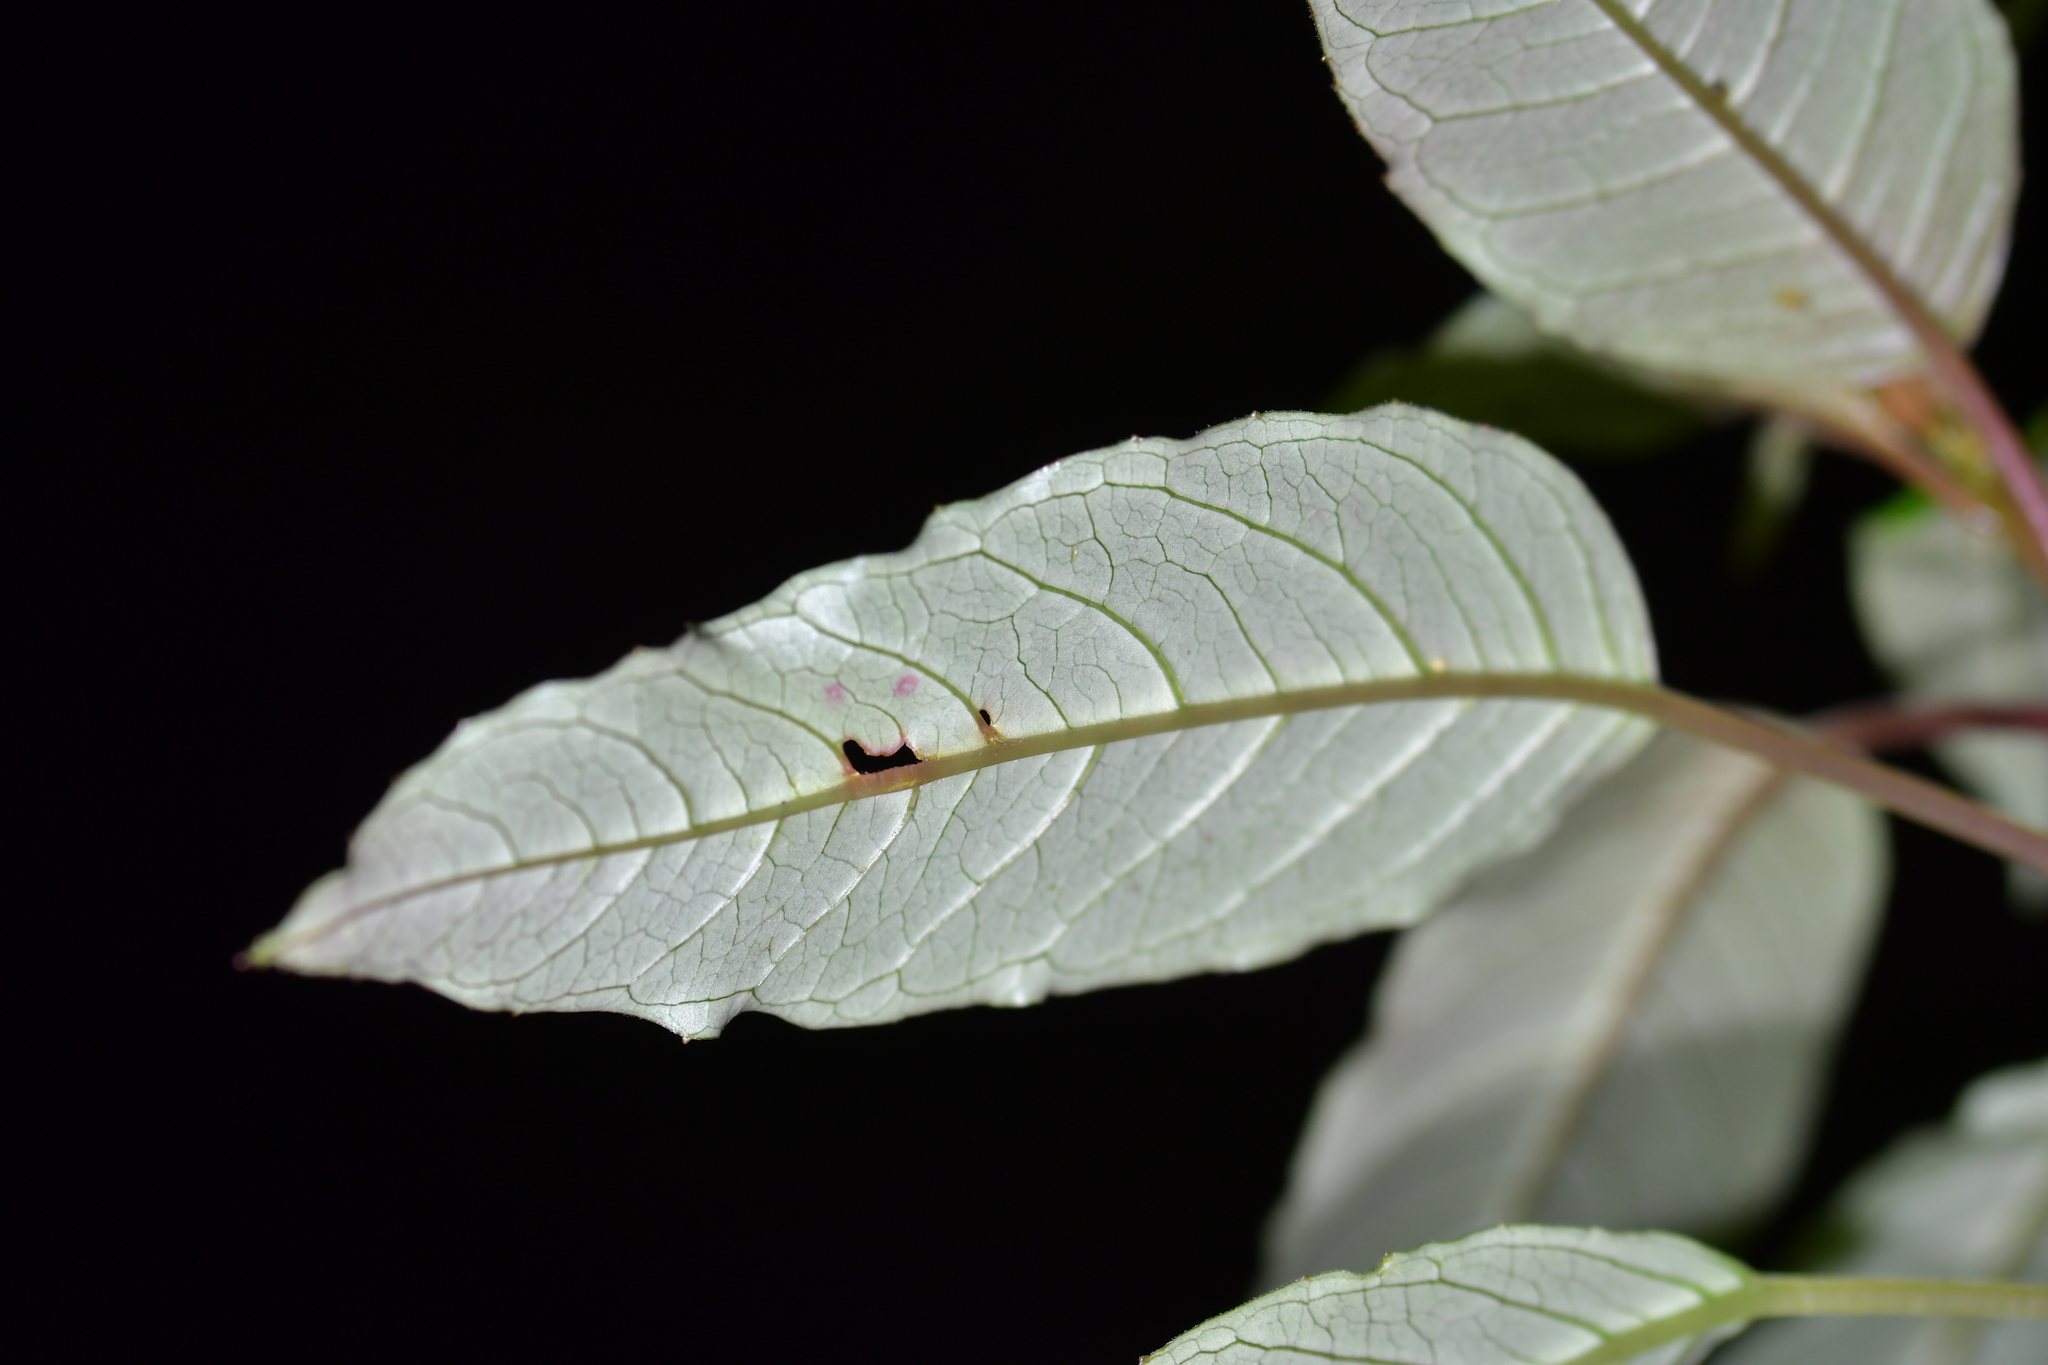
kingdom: Plantae
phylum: Tracheophyta
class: Magnoliopsida
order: Myrtales
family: Onagraceae
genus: Fuchsia
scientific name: Fuchsia excorticata
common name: Tree fuchsia
